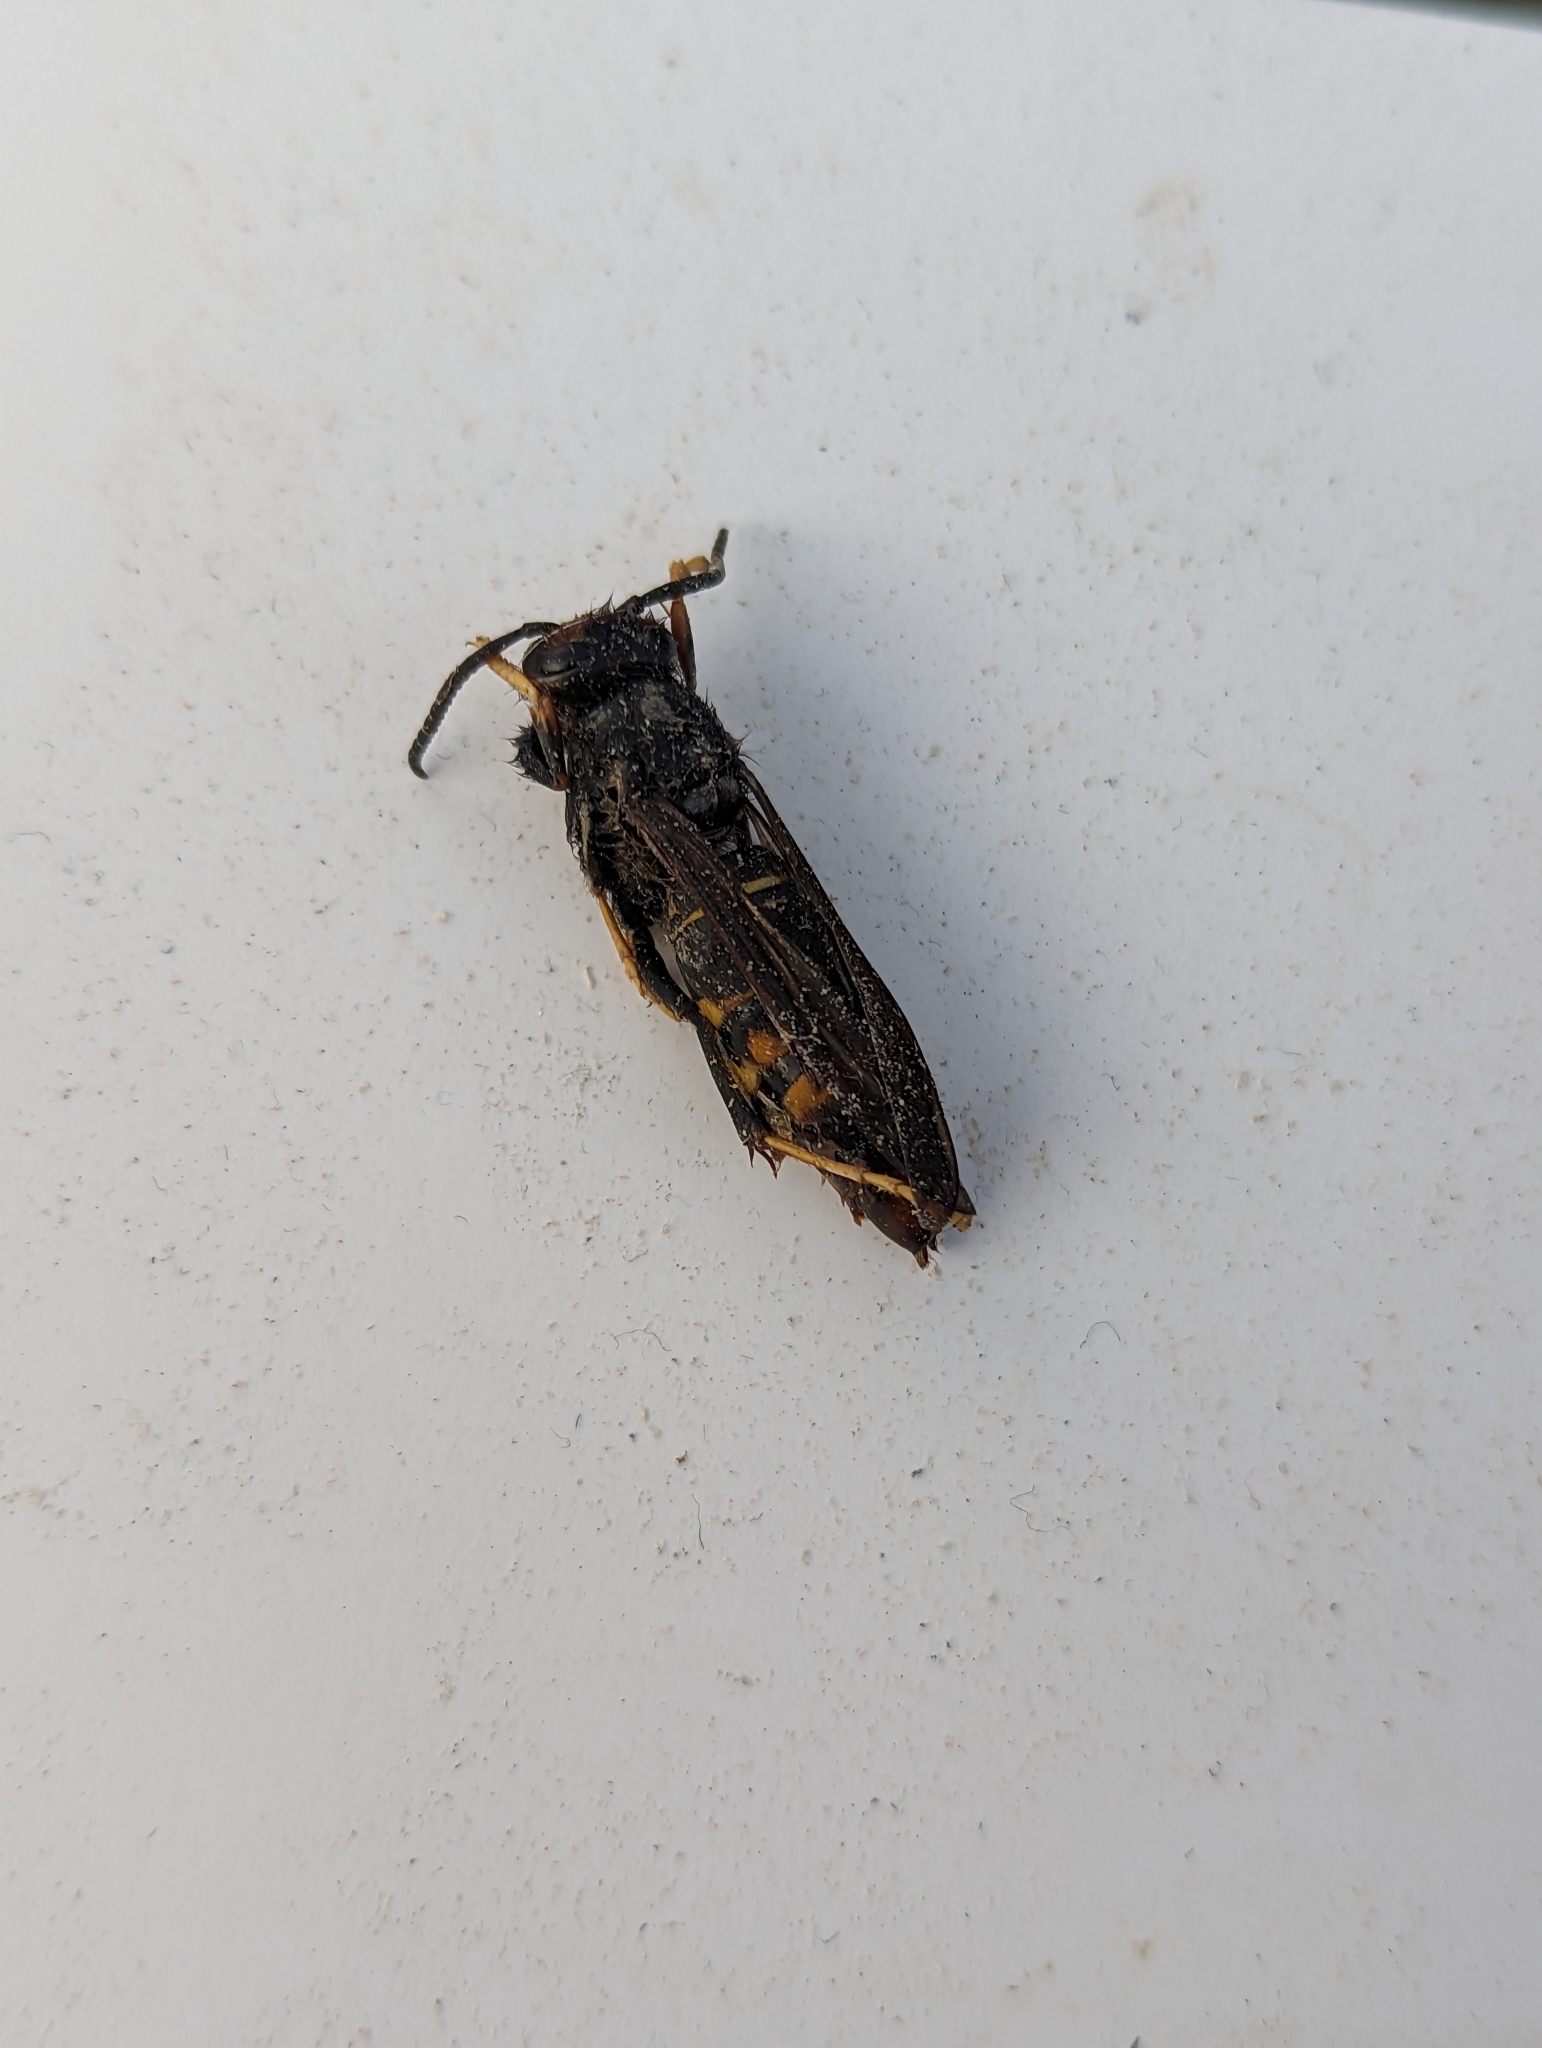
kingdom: Animalia
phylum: Arthropoda
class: Insecta
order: Hymenoptera
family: Vespidae
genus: Vespa
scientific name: Vespa velutina
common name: Asian hornet
